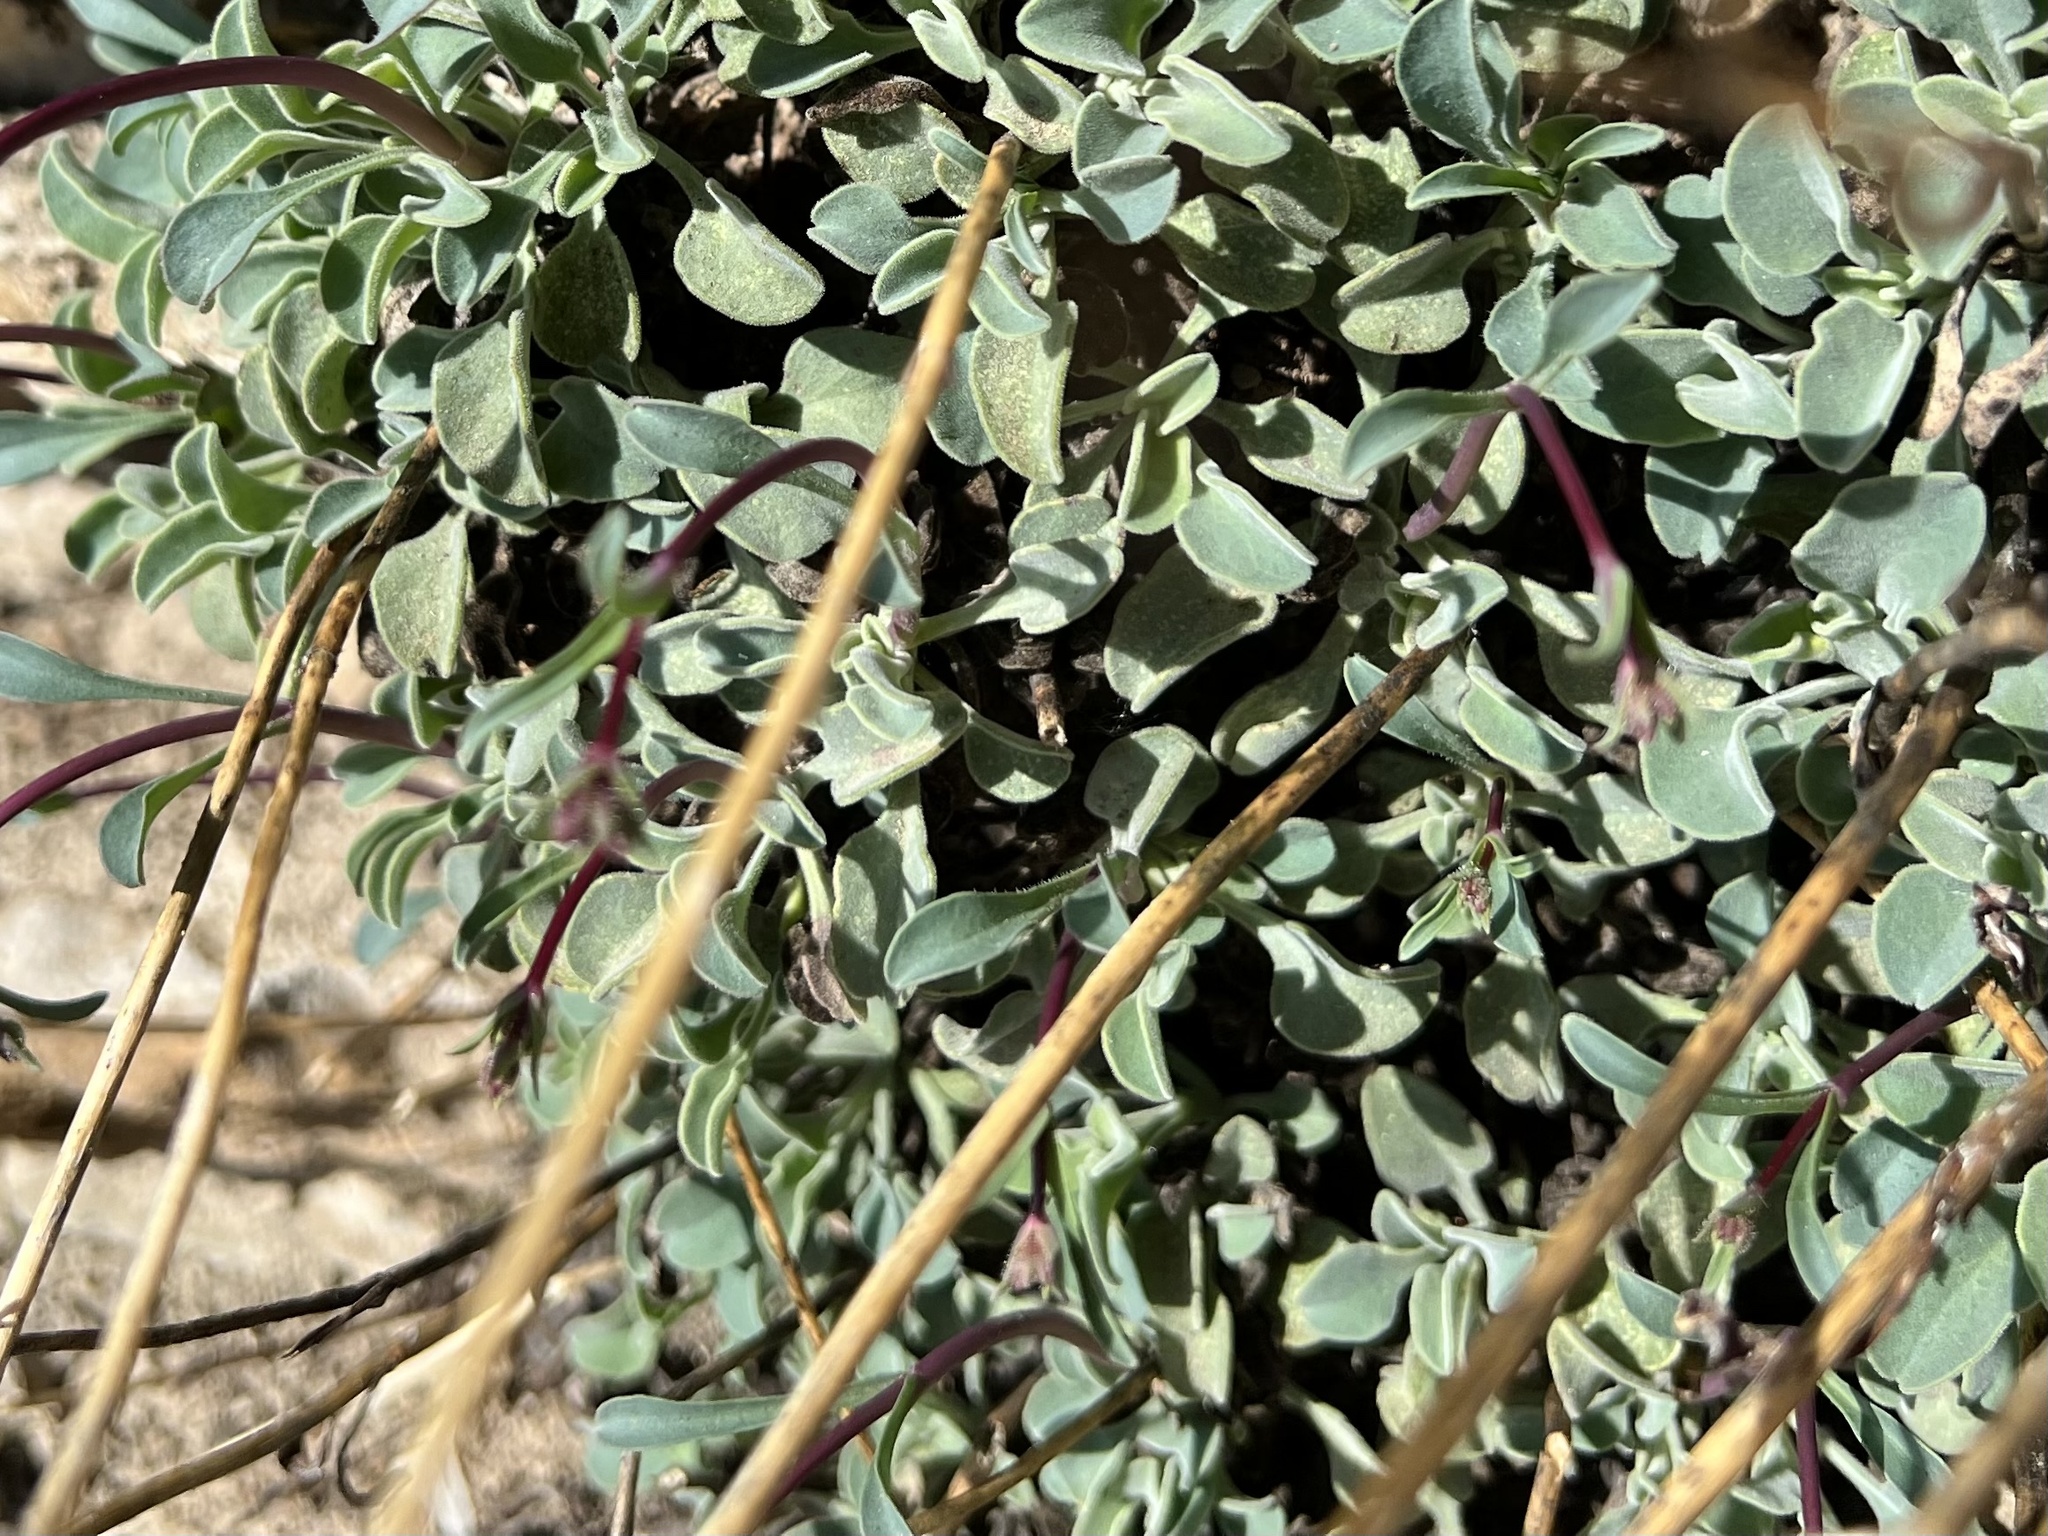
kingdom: Plantae
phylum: Tracheophyta
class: Magnoliopsida
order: Lamiales
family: Plantaginaceae
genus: Penstemon
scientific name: Penstemon scapoides
